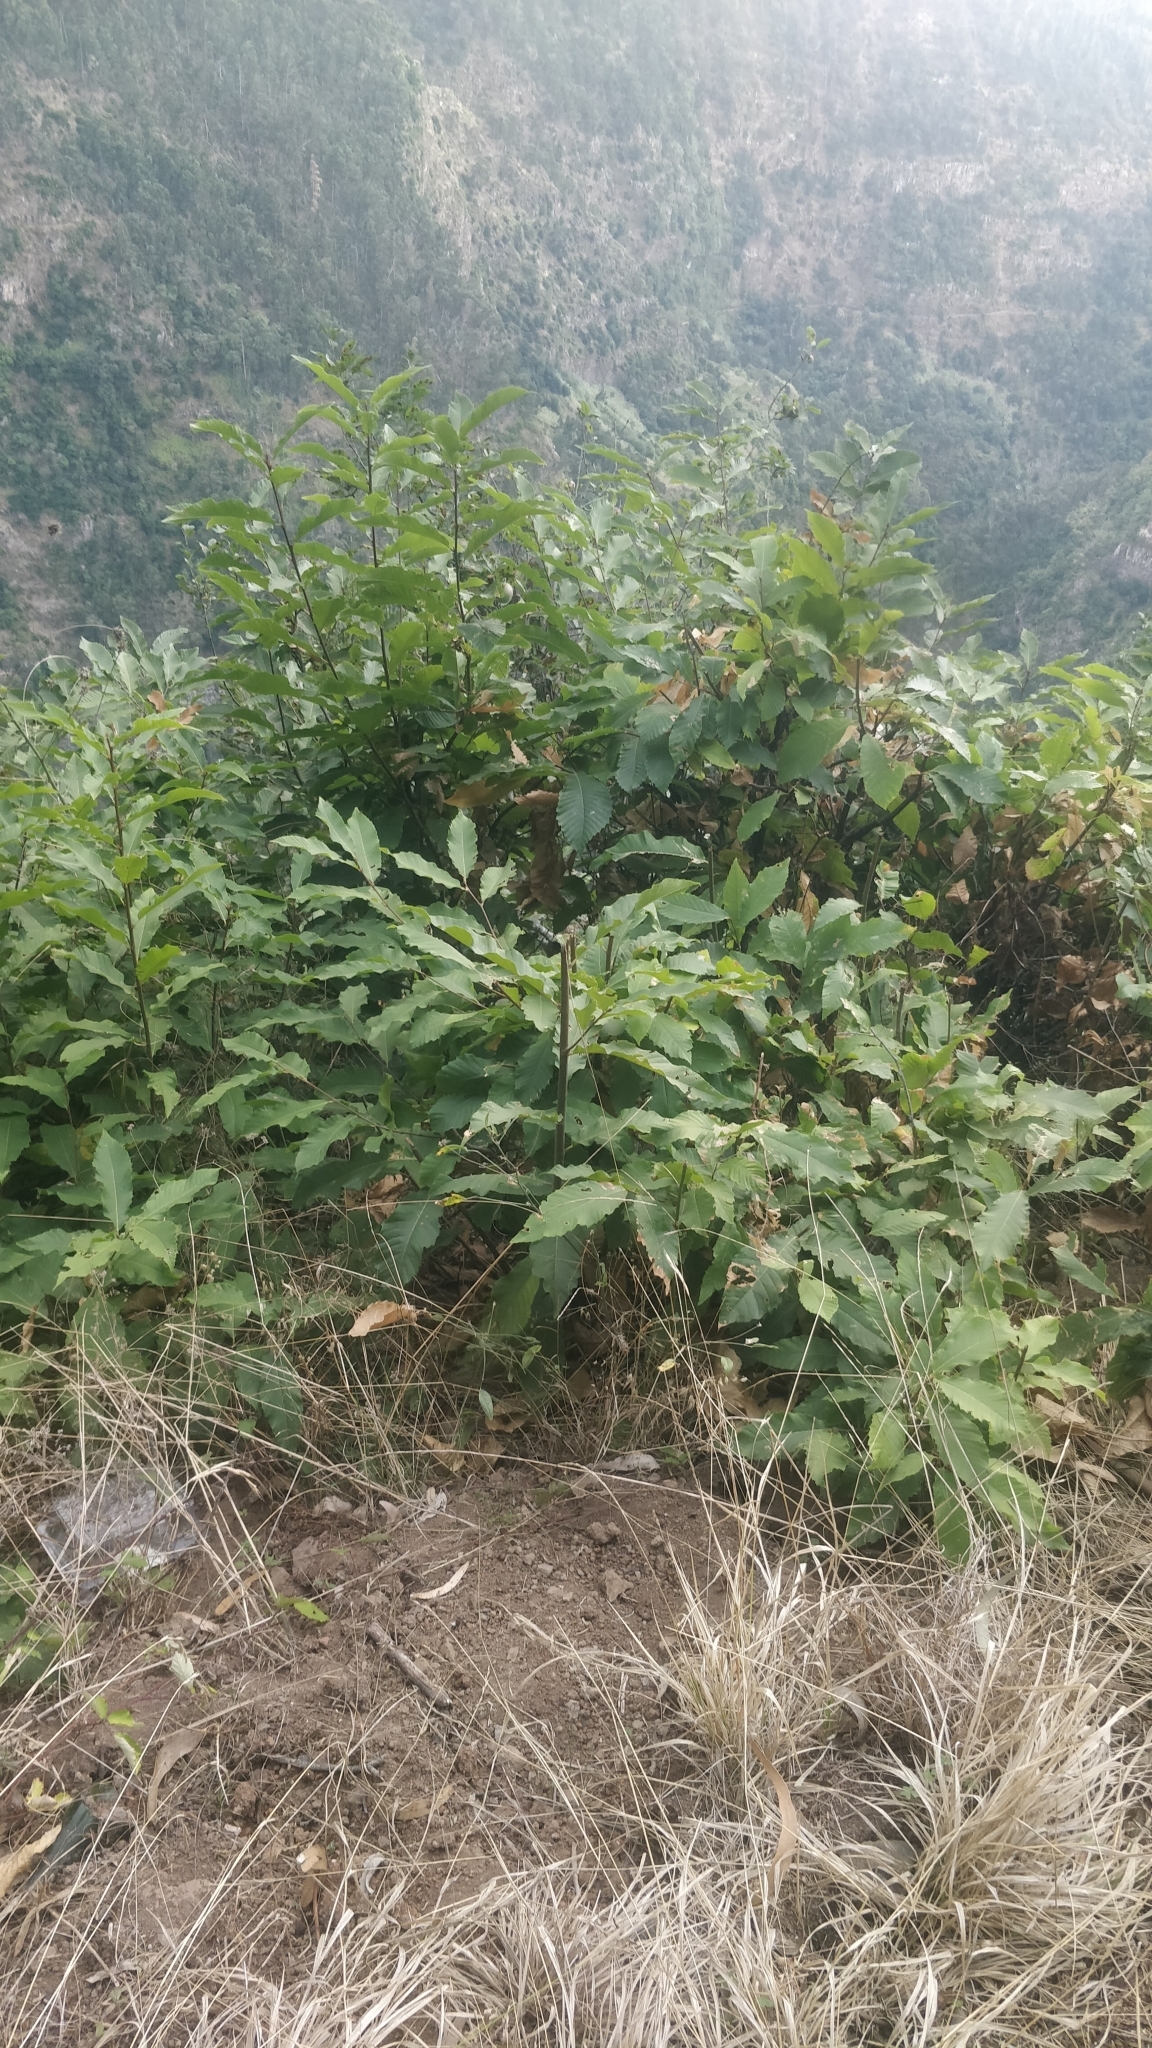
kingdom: Plantae
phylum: Tracheophyta
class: Magnoliopsida
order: Fagales
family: Fagaceae
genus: Castanea
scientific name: Castanea sativa
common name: Sweet chestnut
